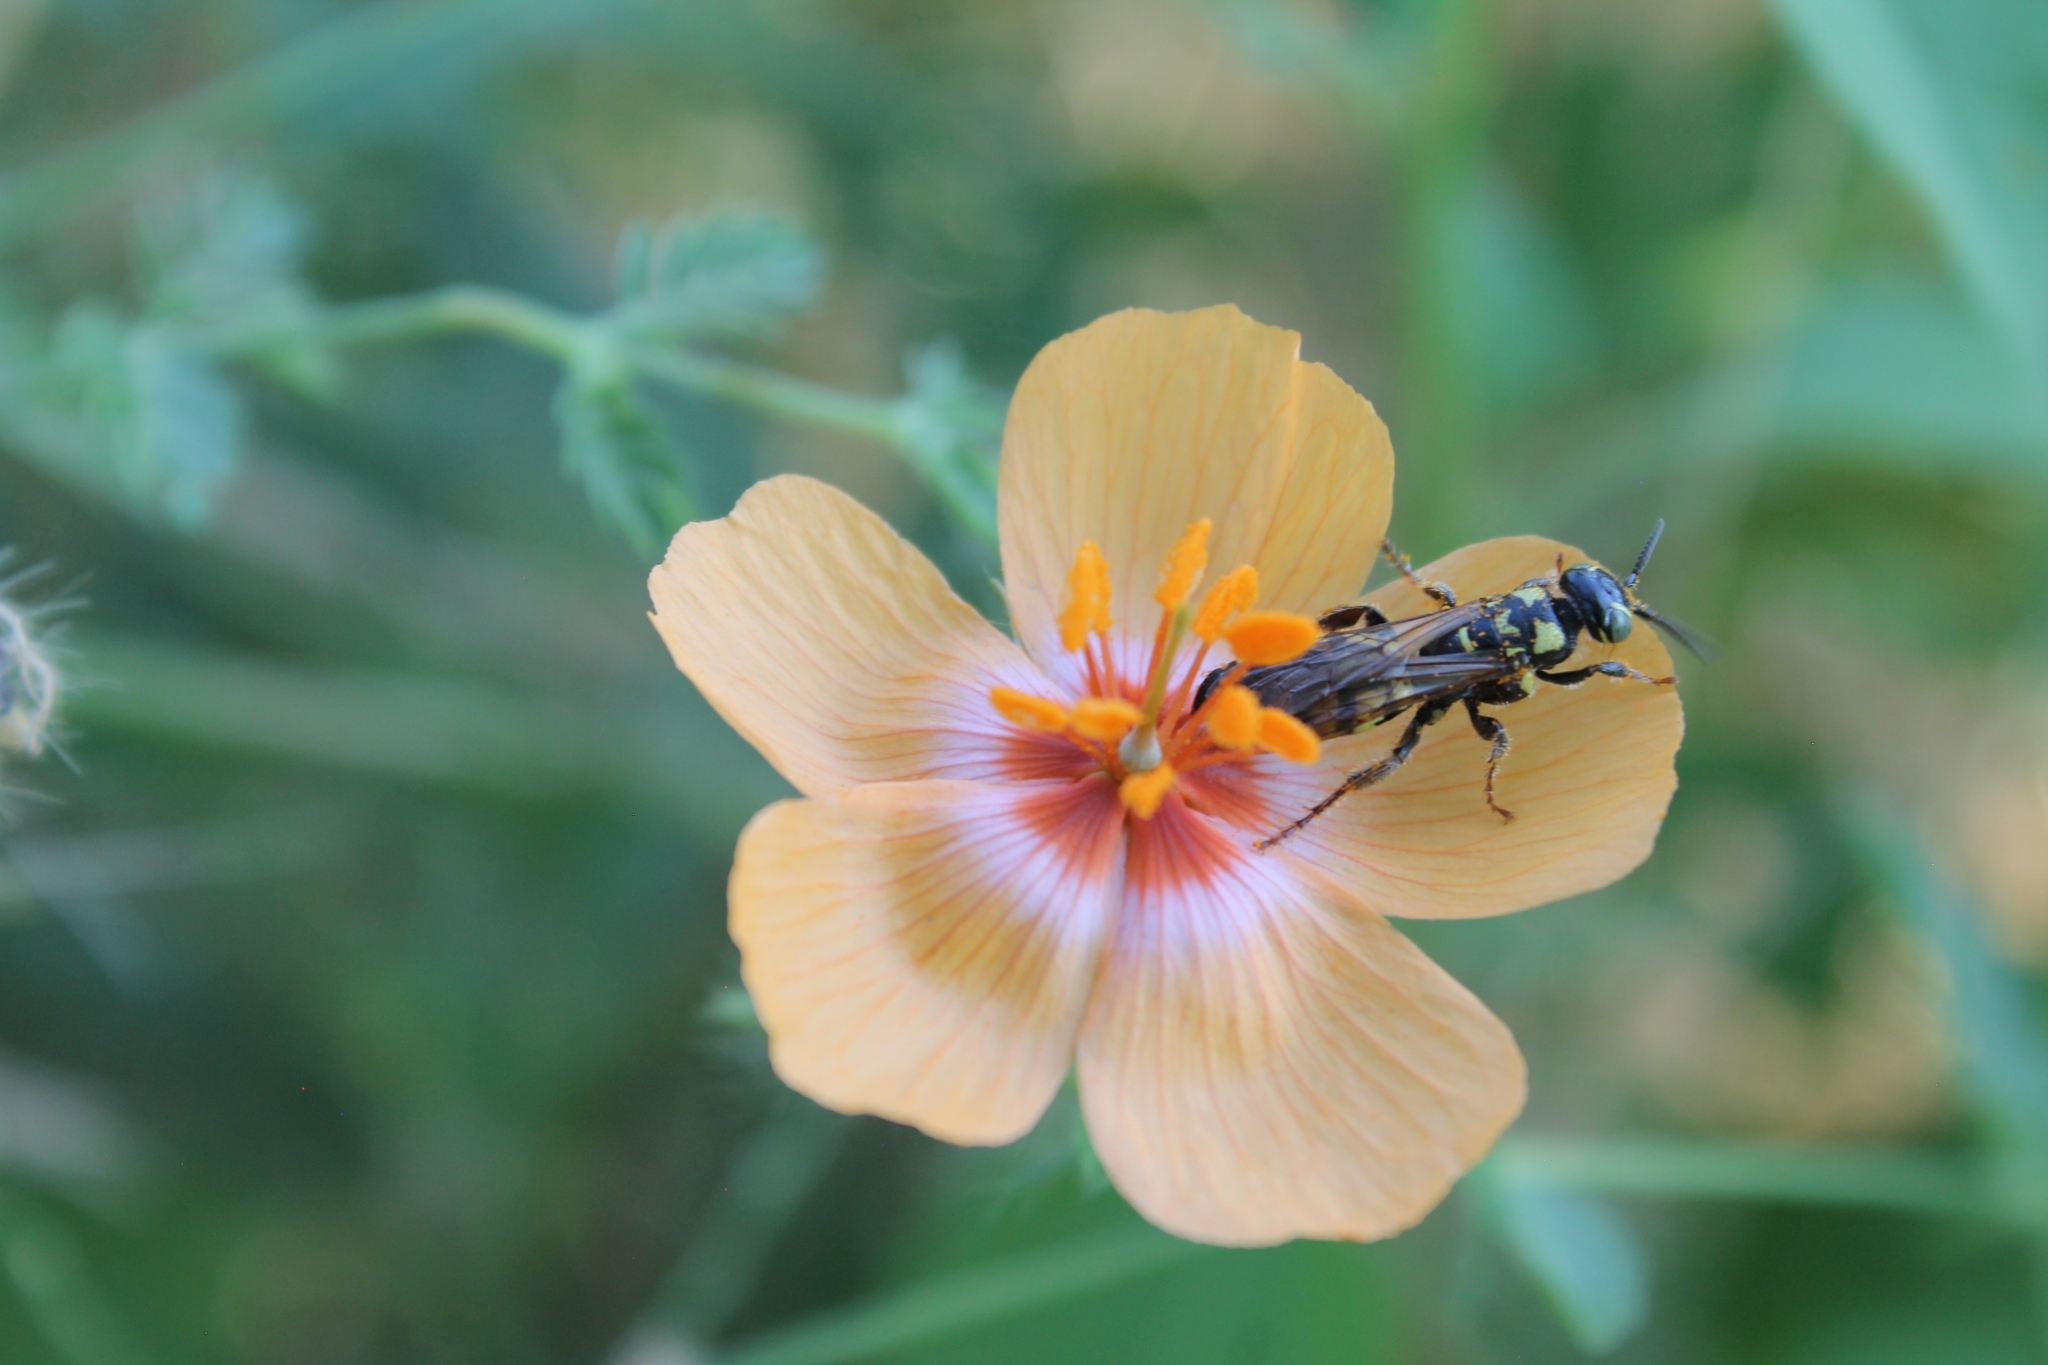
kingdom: Plantae
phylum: Tracheophyta
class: Magnoliopsida
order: Zygophyllales
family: Zygophyllaceae
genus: Kallstroemia
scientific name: Kallstroemia grandiflora
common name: Arizona-poppy
